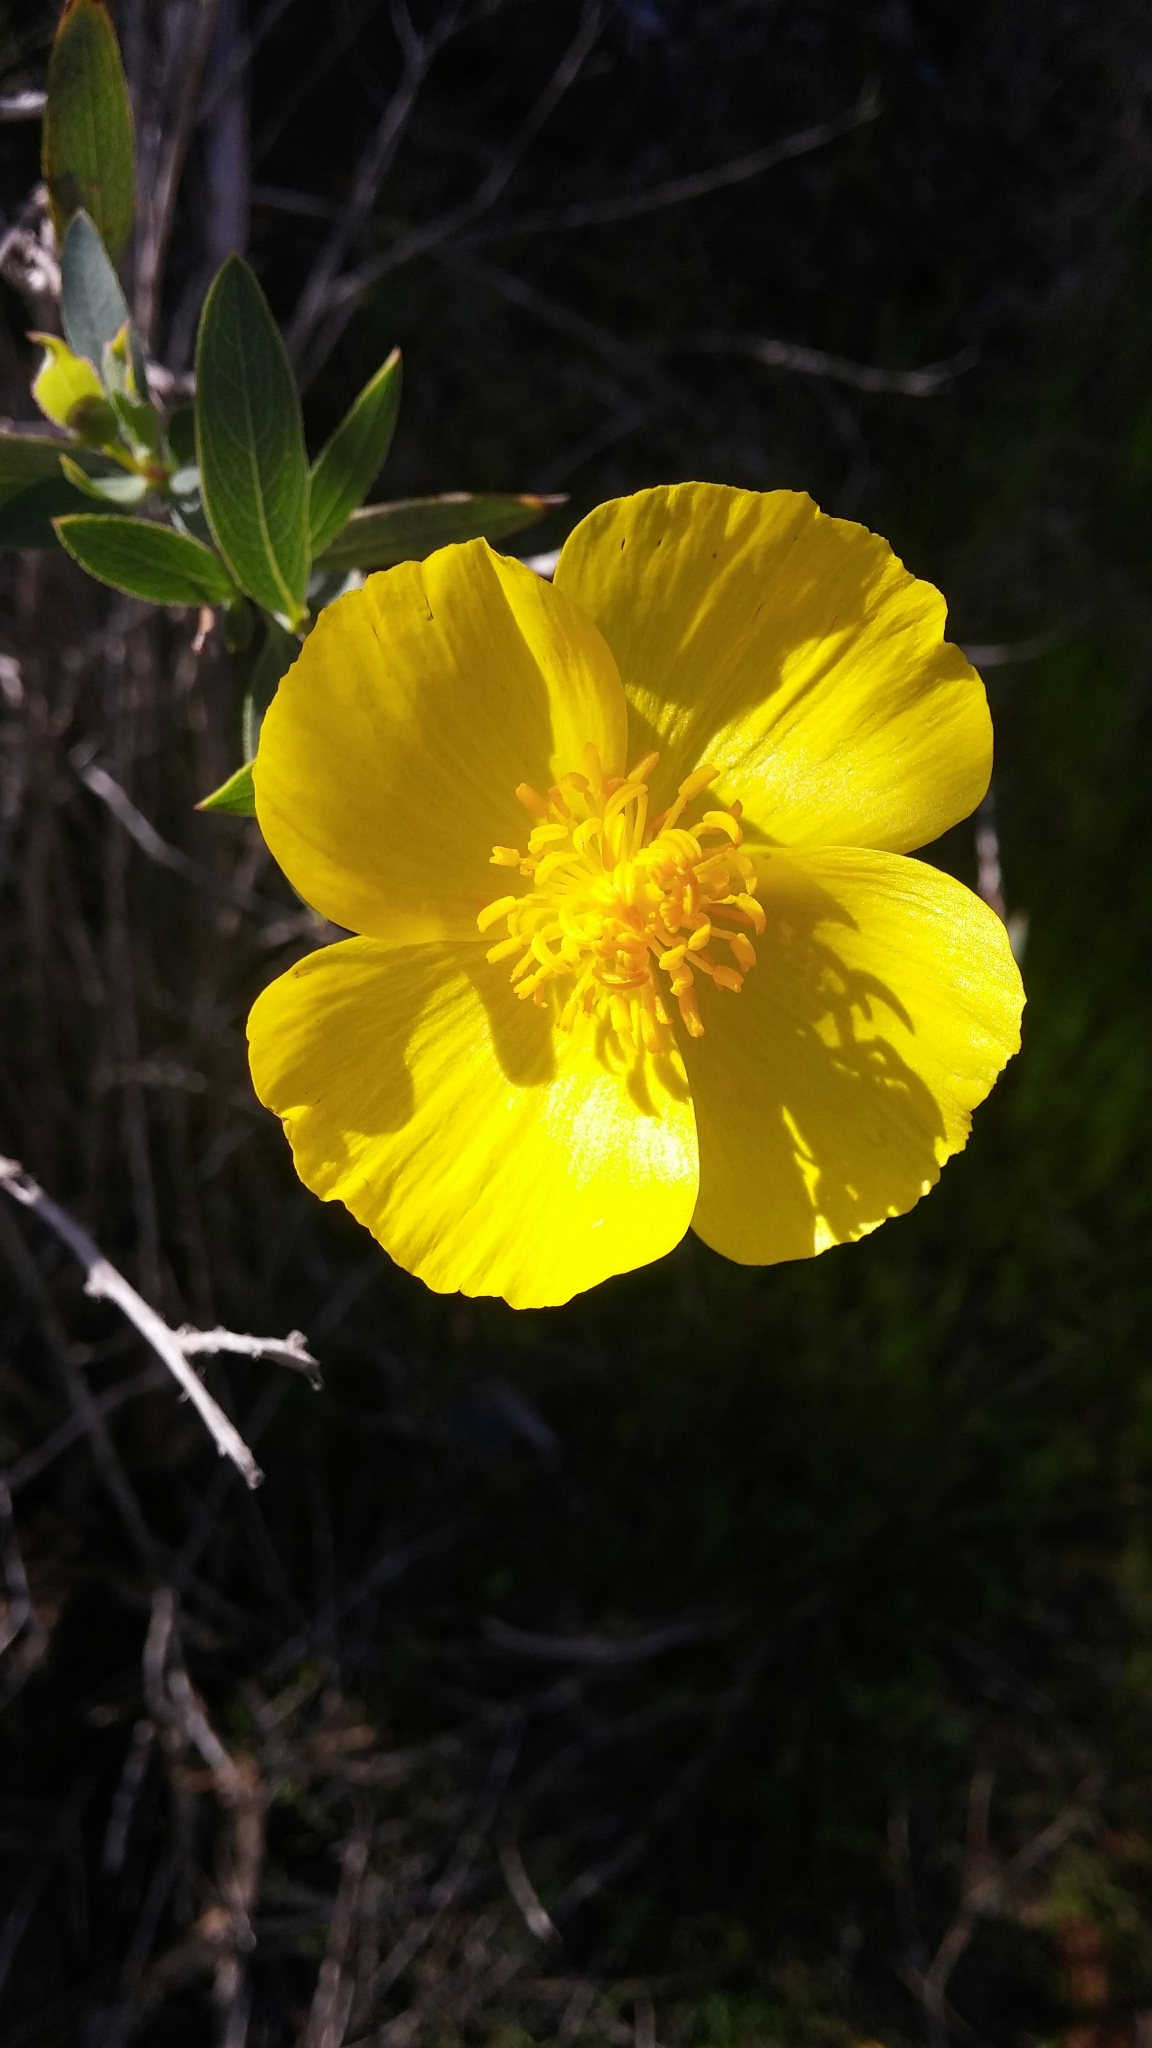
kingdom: Plantae
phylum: Tracheophyta
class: Magnoliopsida
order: Ranunculales
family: Papaveraceae
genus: Dendromecon
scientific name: Dendromecon rigida
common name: Tree poppy
